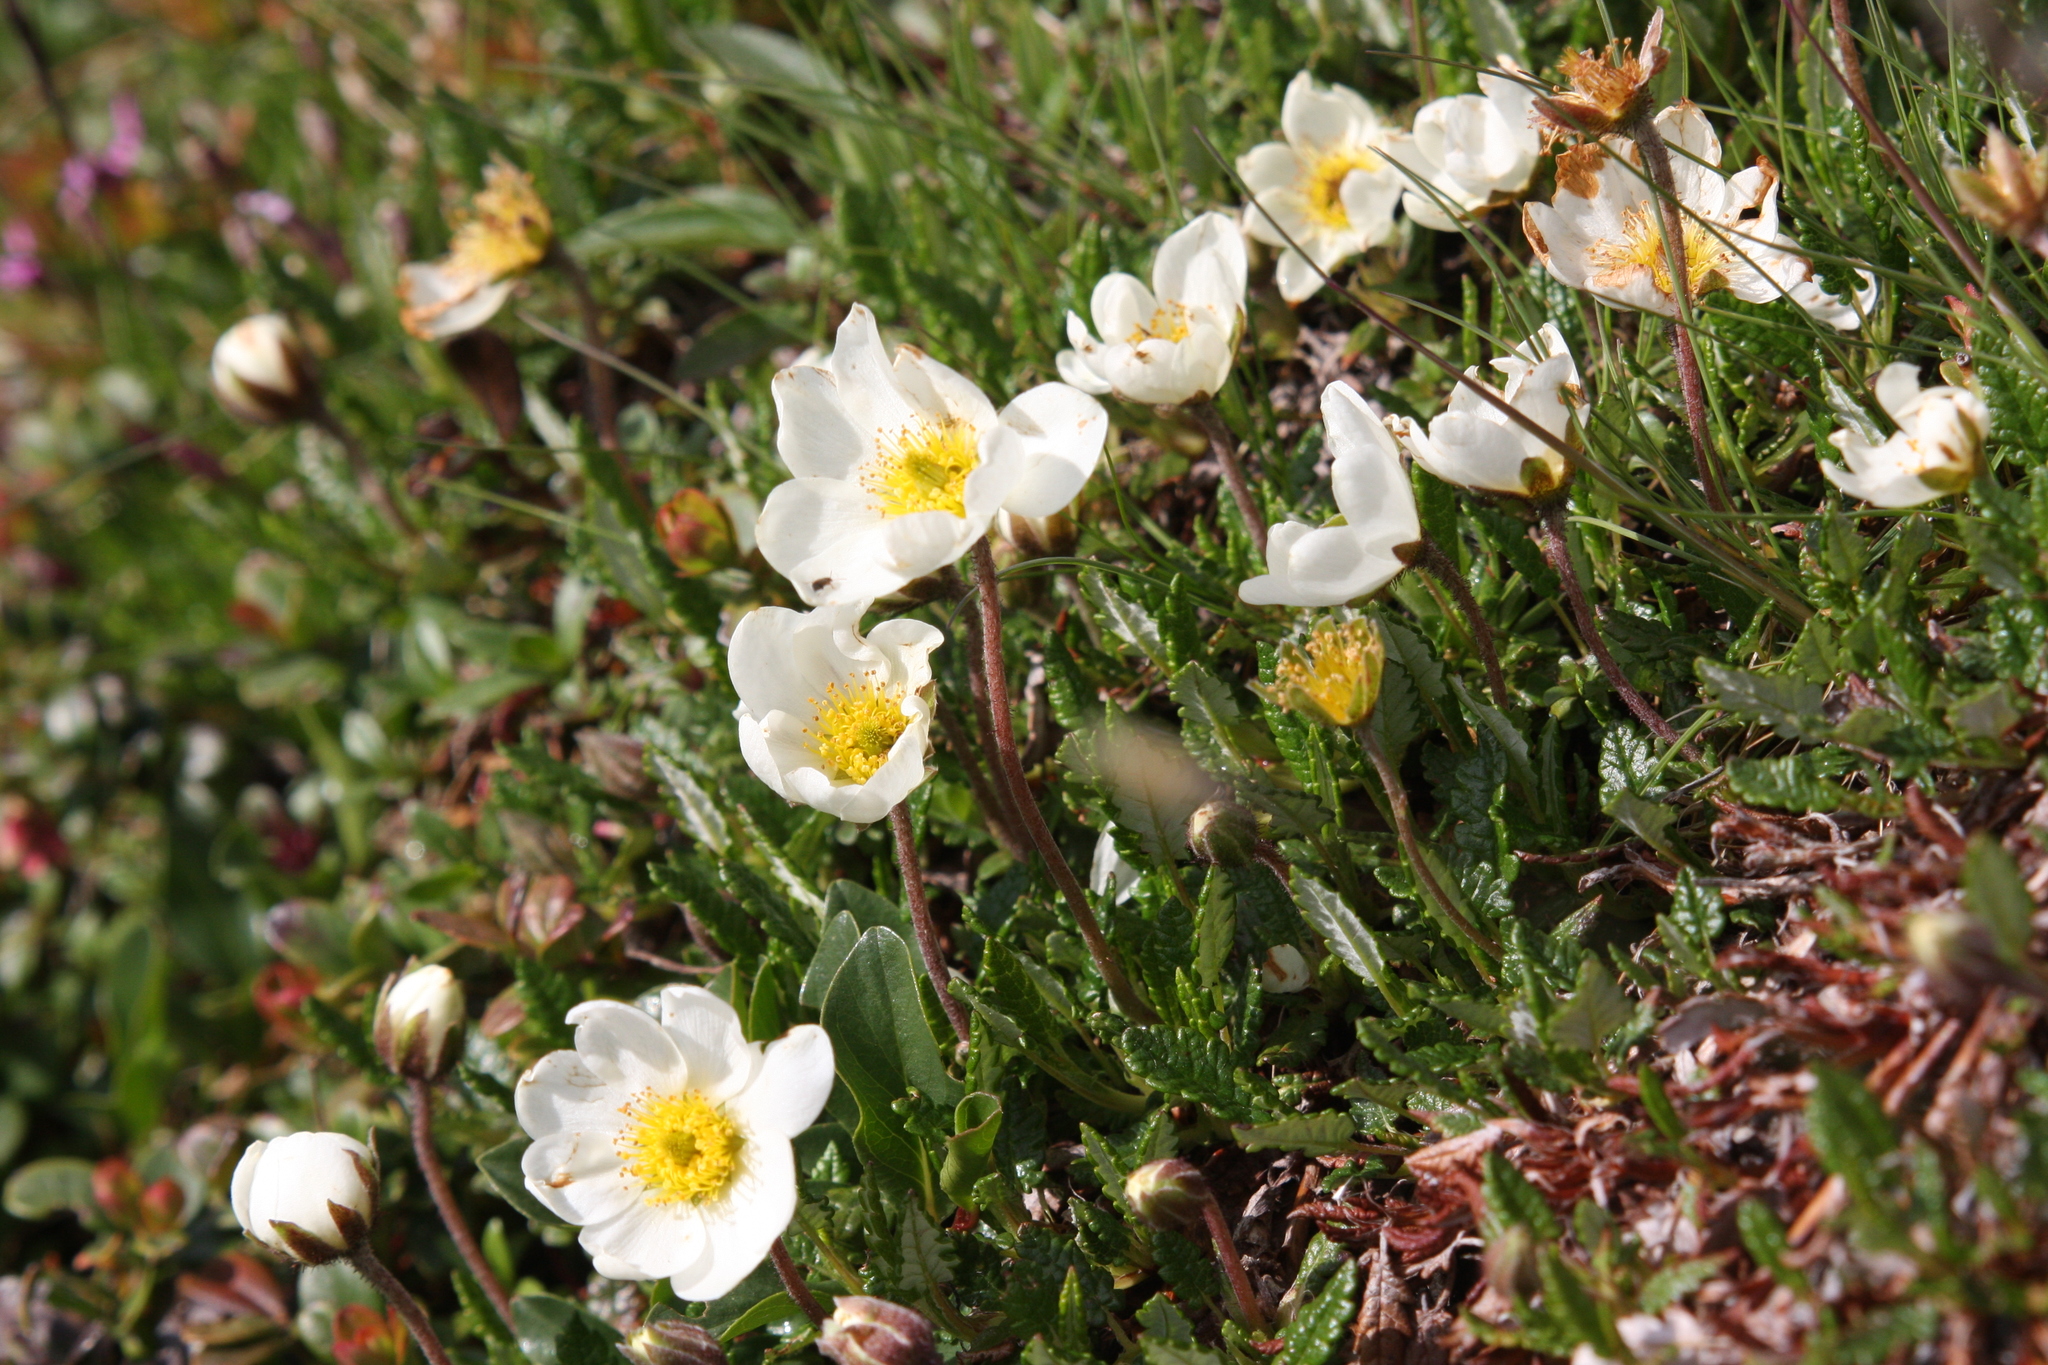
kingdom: Plantae
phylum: Tracheophyta
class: Magnoliopsida
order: Rosales
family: Rosaceae
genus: Dryas
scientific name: Dryas octopetala
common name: Eight-petal mountain-avens
